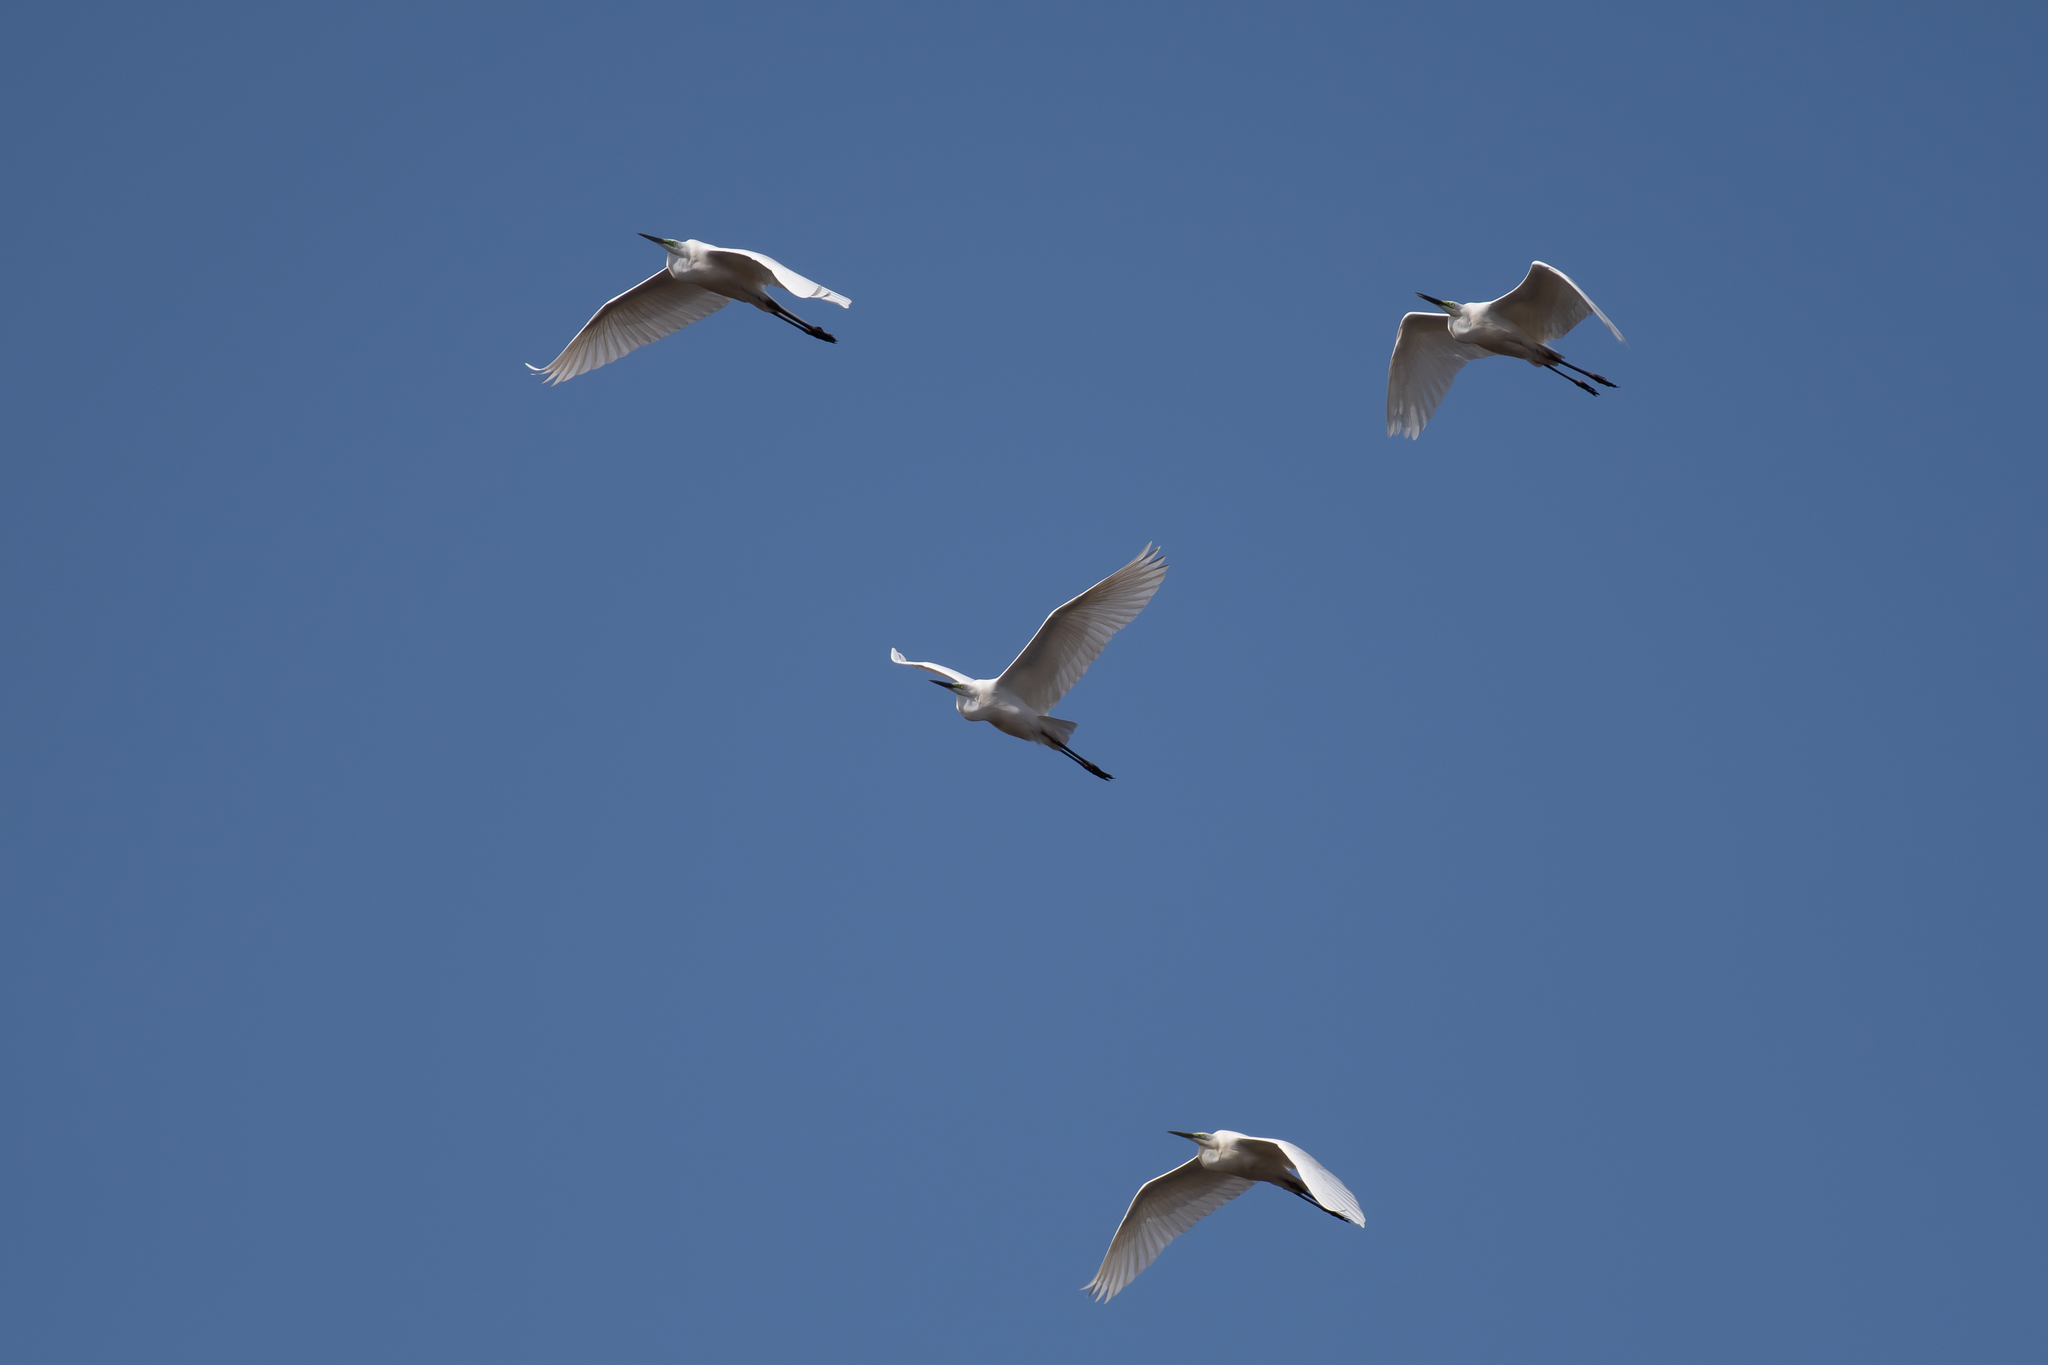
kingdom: Animalia
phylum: Chordata
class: Aves
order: Pelecaniformes
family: Ardeidae
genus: Ardea
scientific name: Ardea alba
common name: Great egret
